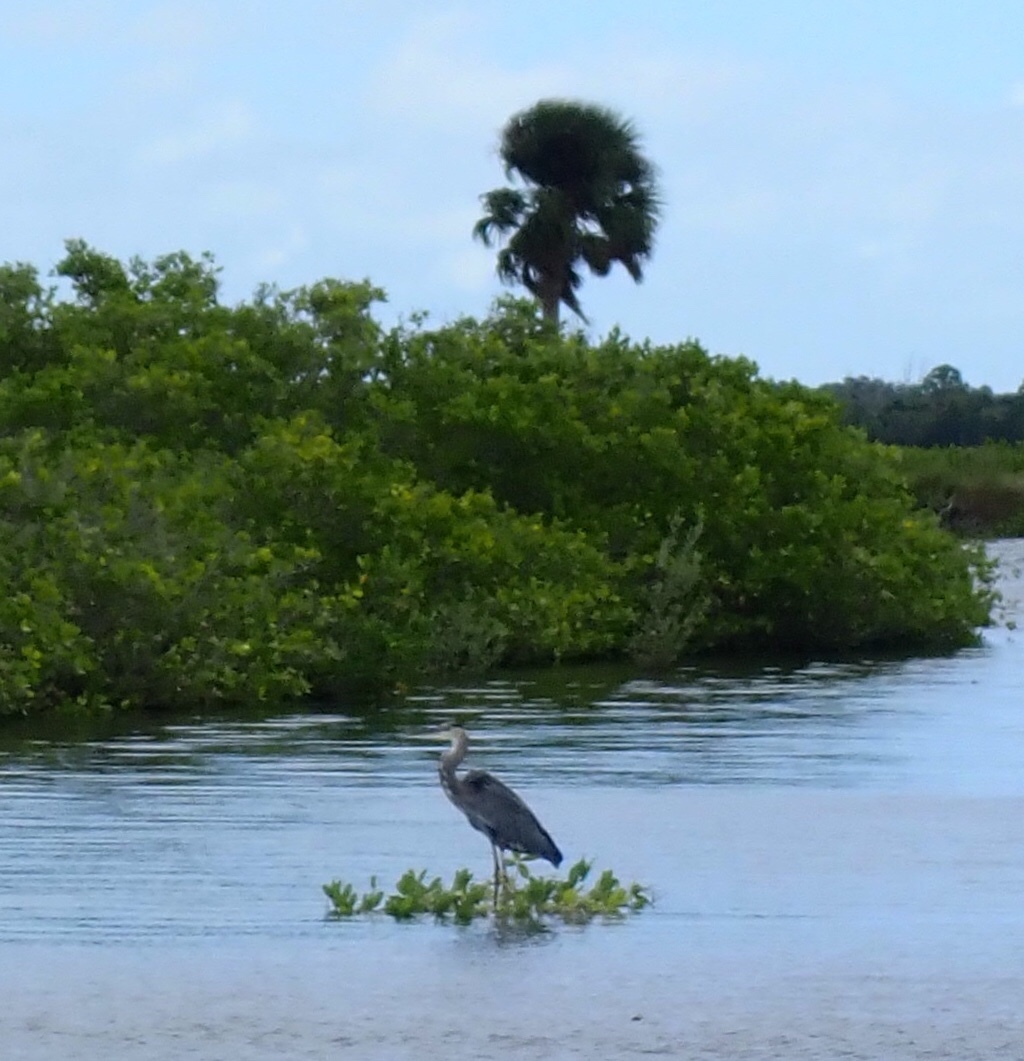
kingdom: Animalia
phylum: Chordata
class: Aves
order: Pelecaniformes
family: Ardeidae
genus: Ardea
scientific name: Ardea herodias
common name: Great blue heron
